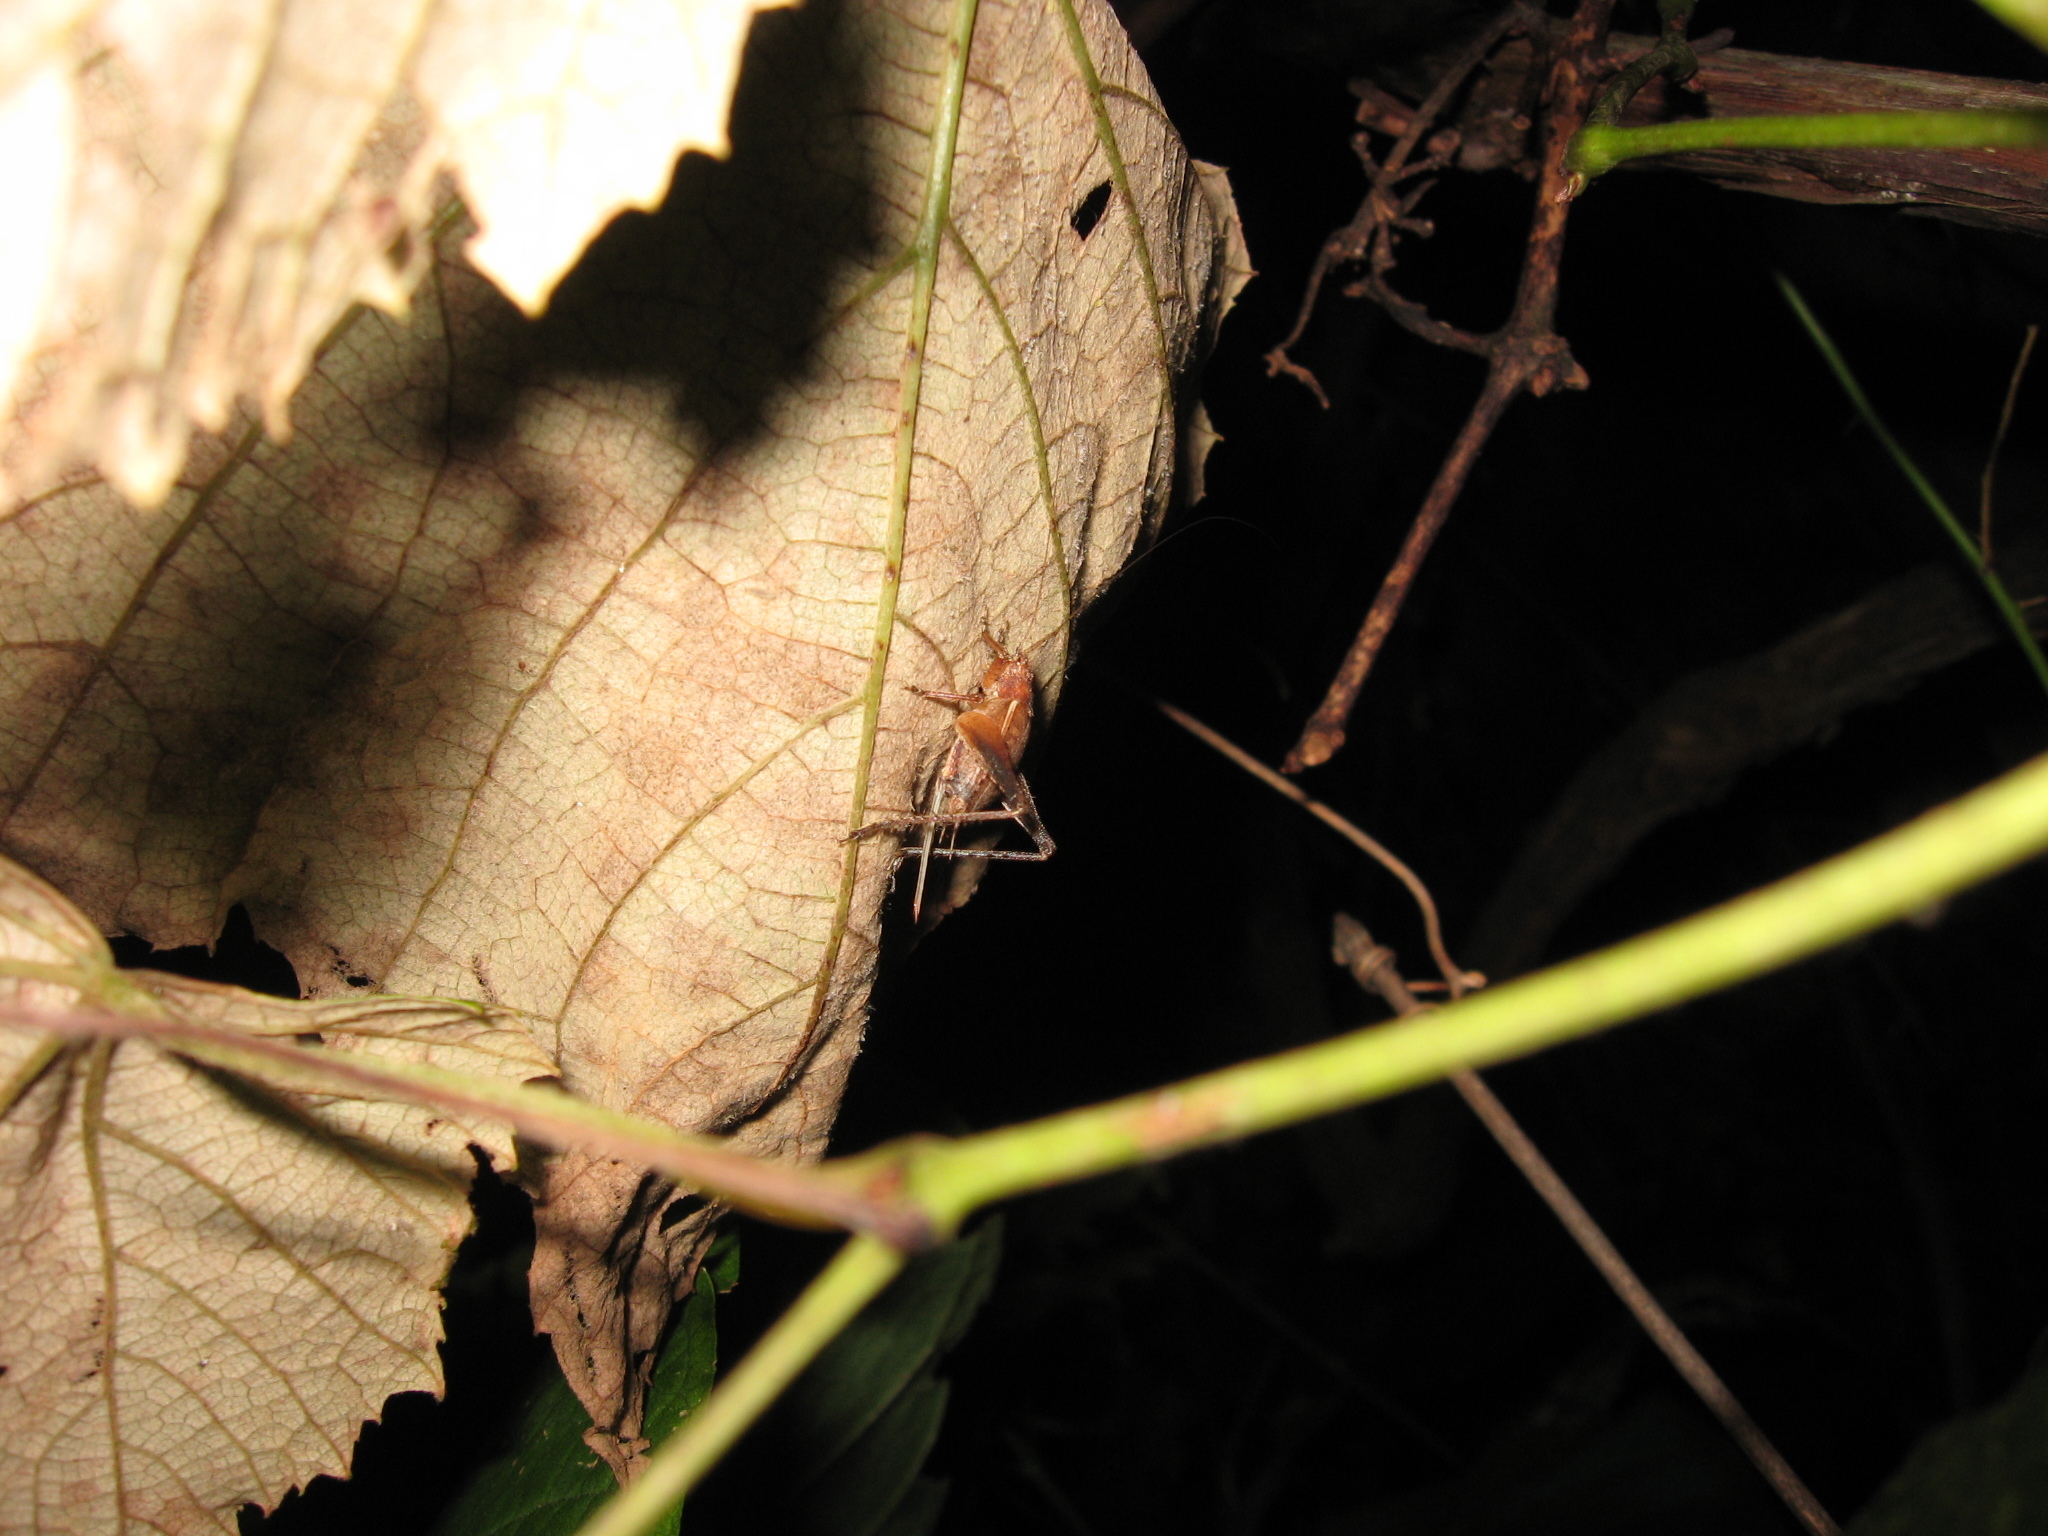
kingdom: Animalia
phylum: Arthropoda
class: Insecta
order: Orthoptera
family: Gryllidae
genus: Hapithus
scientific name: Hapithus agitator
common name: Restless bush cricket
